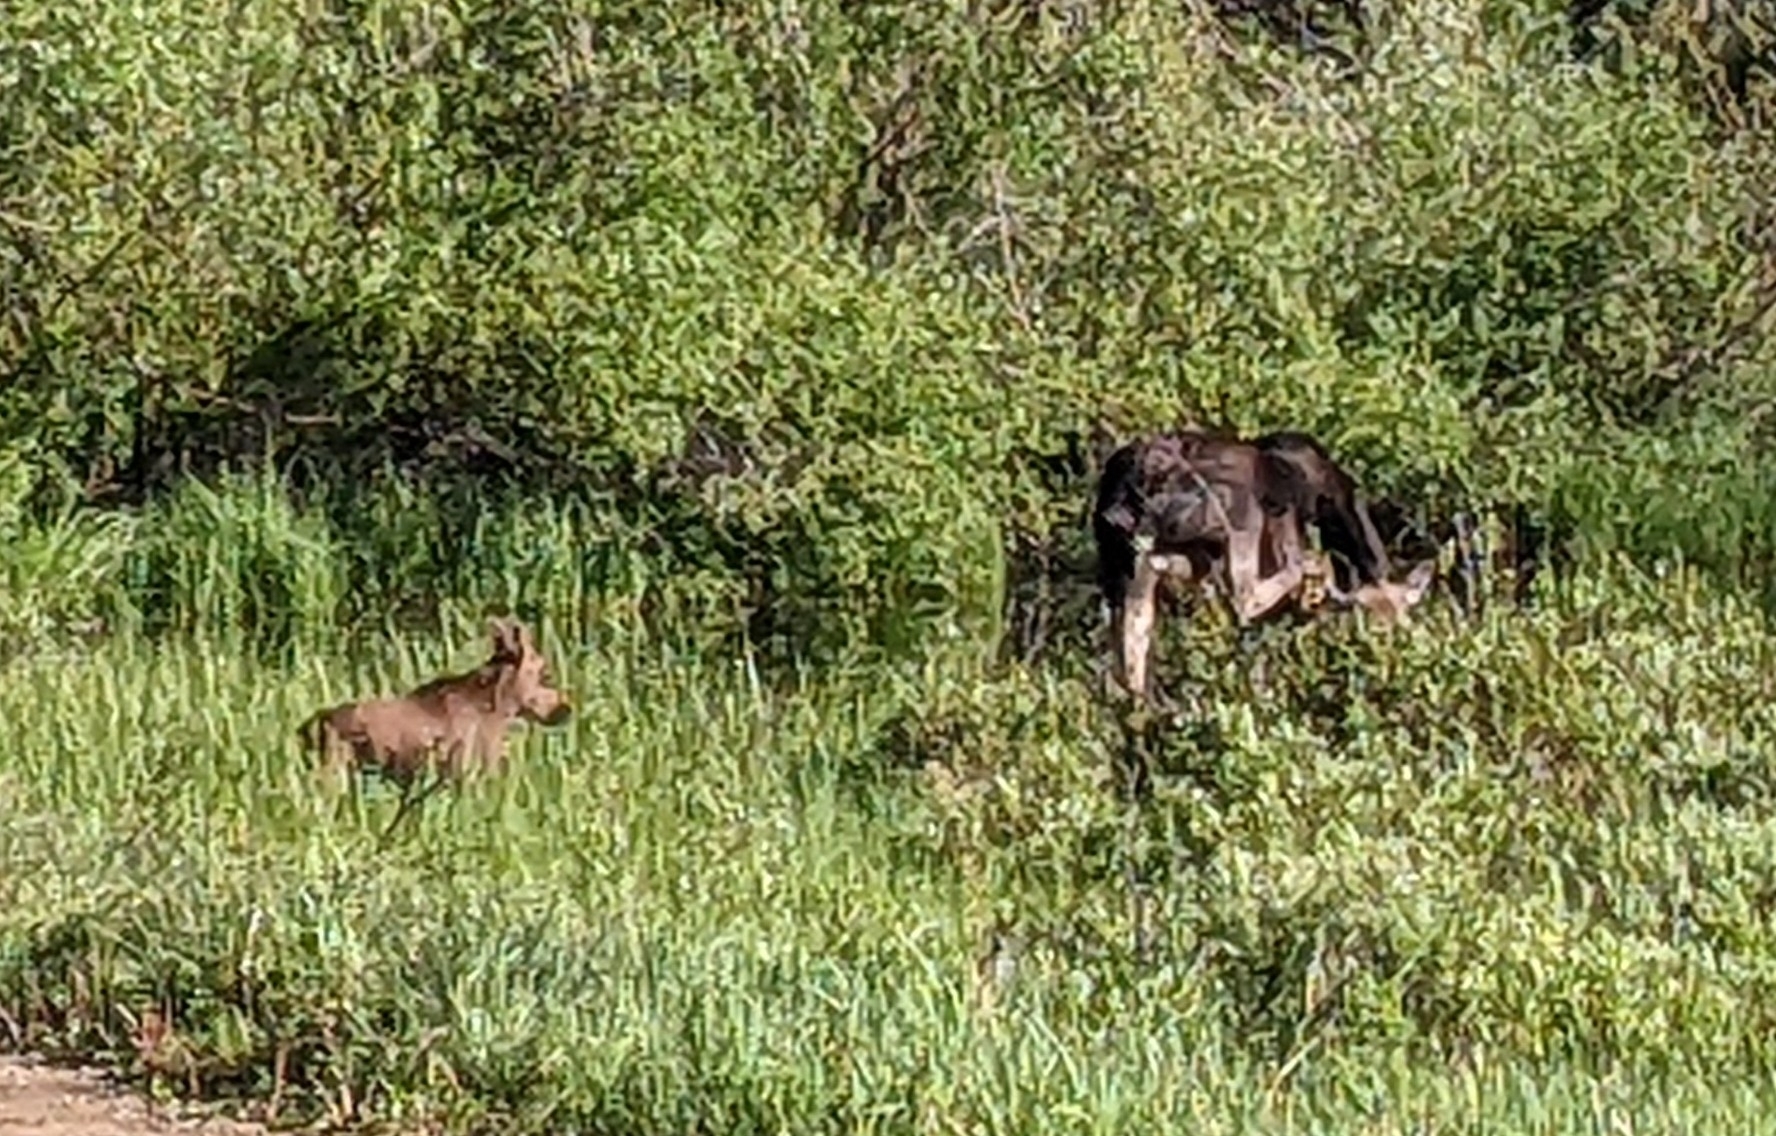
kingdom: Animalia
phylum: Chordata
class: Mammalia
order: Artiodactyla
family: Cervidae
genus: Alces
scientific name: Alces americanus
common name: Moose
